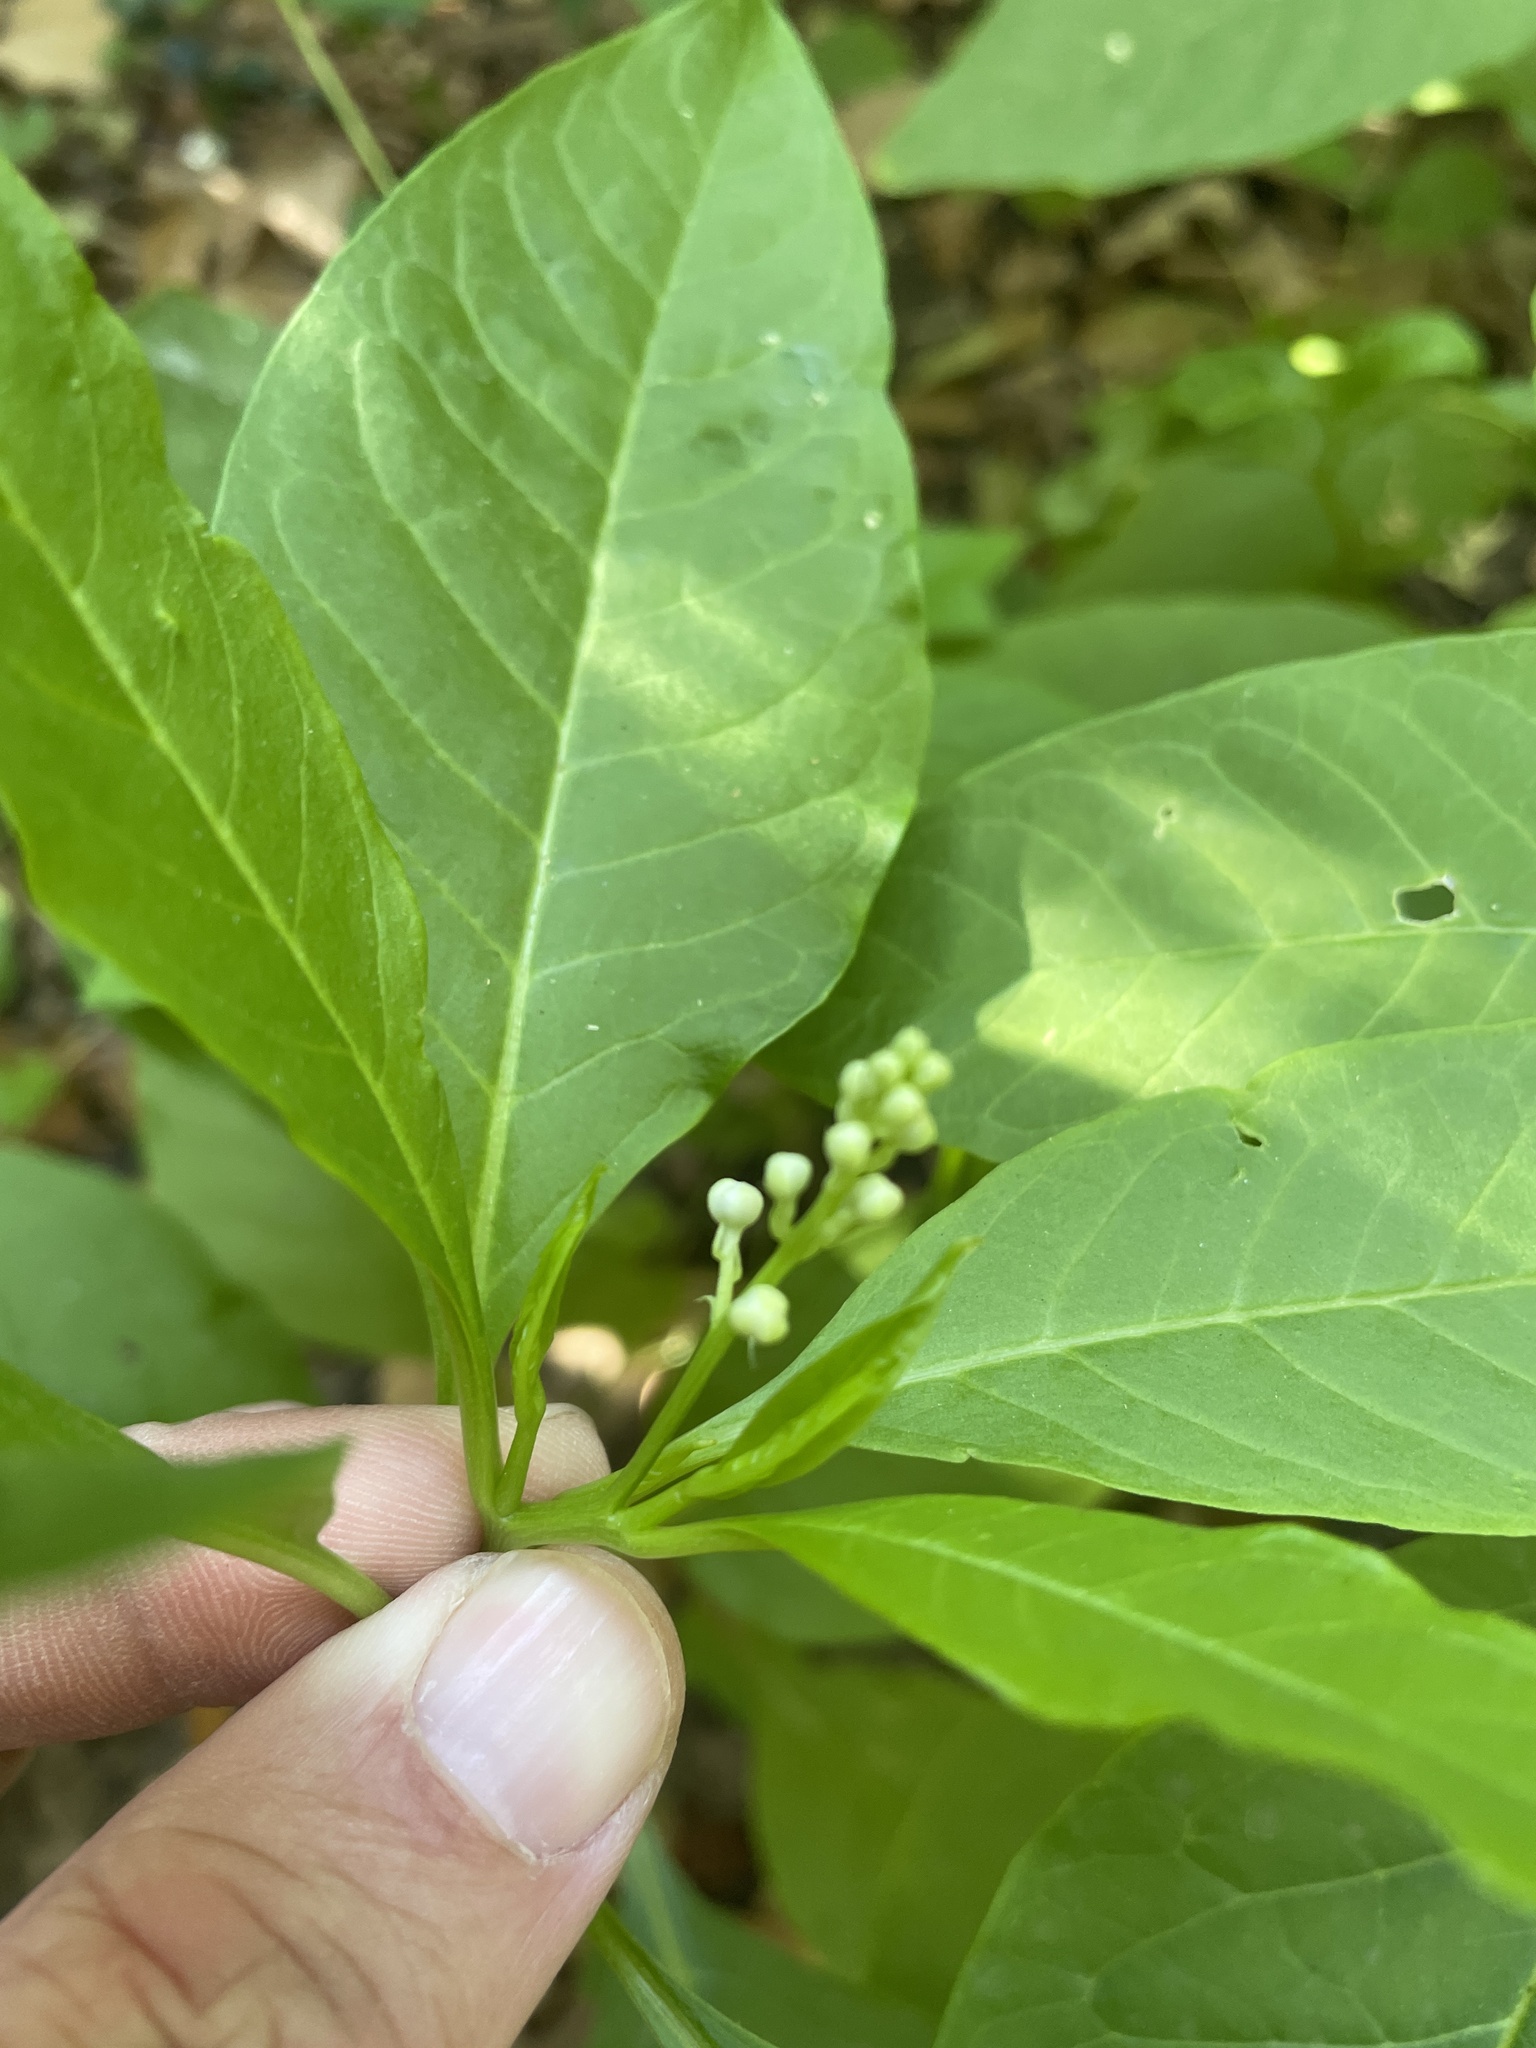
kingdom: Plantae
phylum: Tracheophyta
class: Magnoliopsida
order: Caryophyllales
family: Phytolaccaceae
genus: Phytolacca
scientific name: Phytolacca americana
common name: American pokeweed
